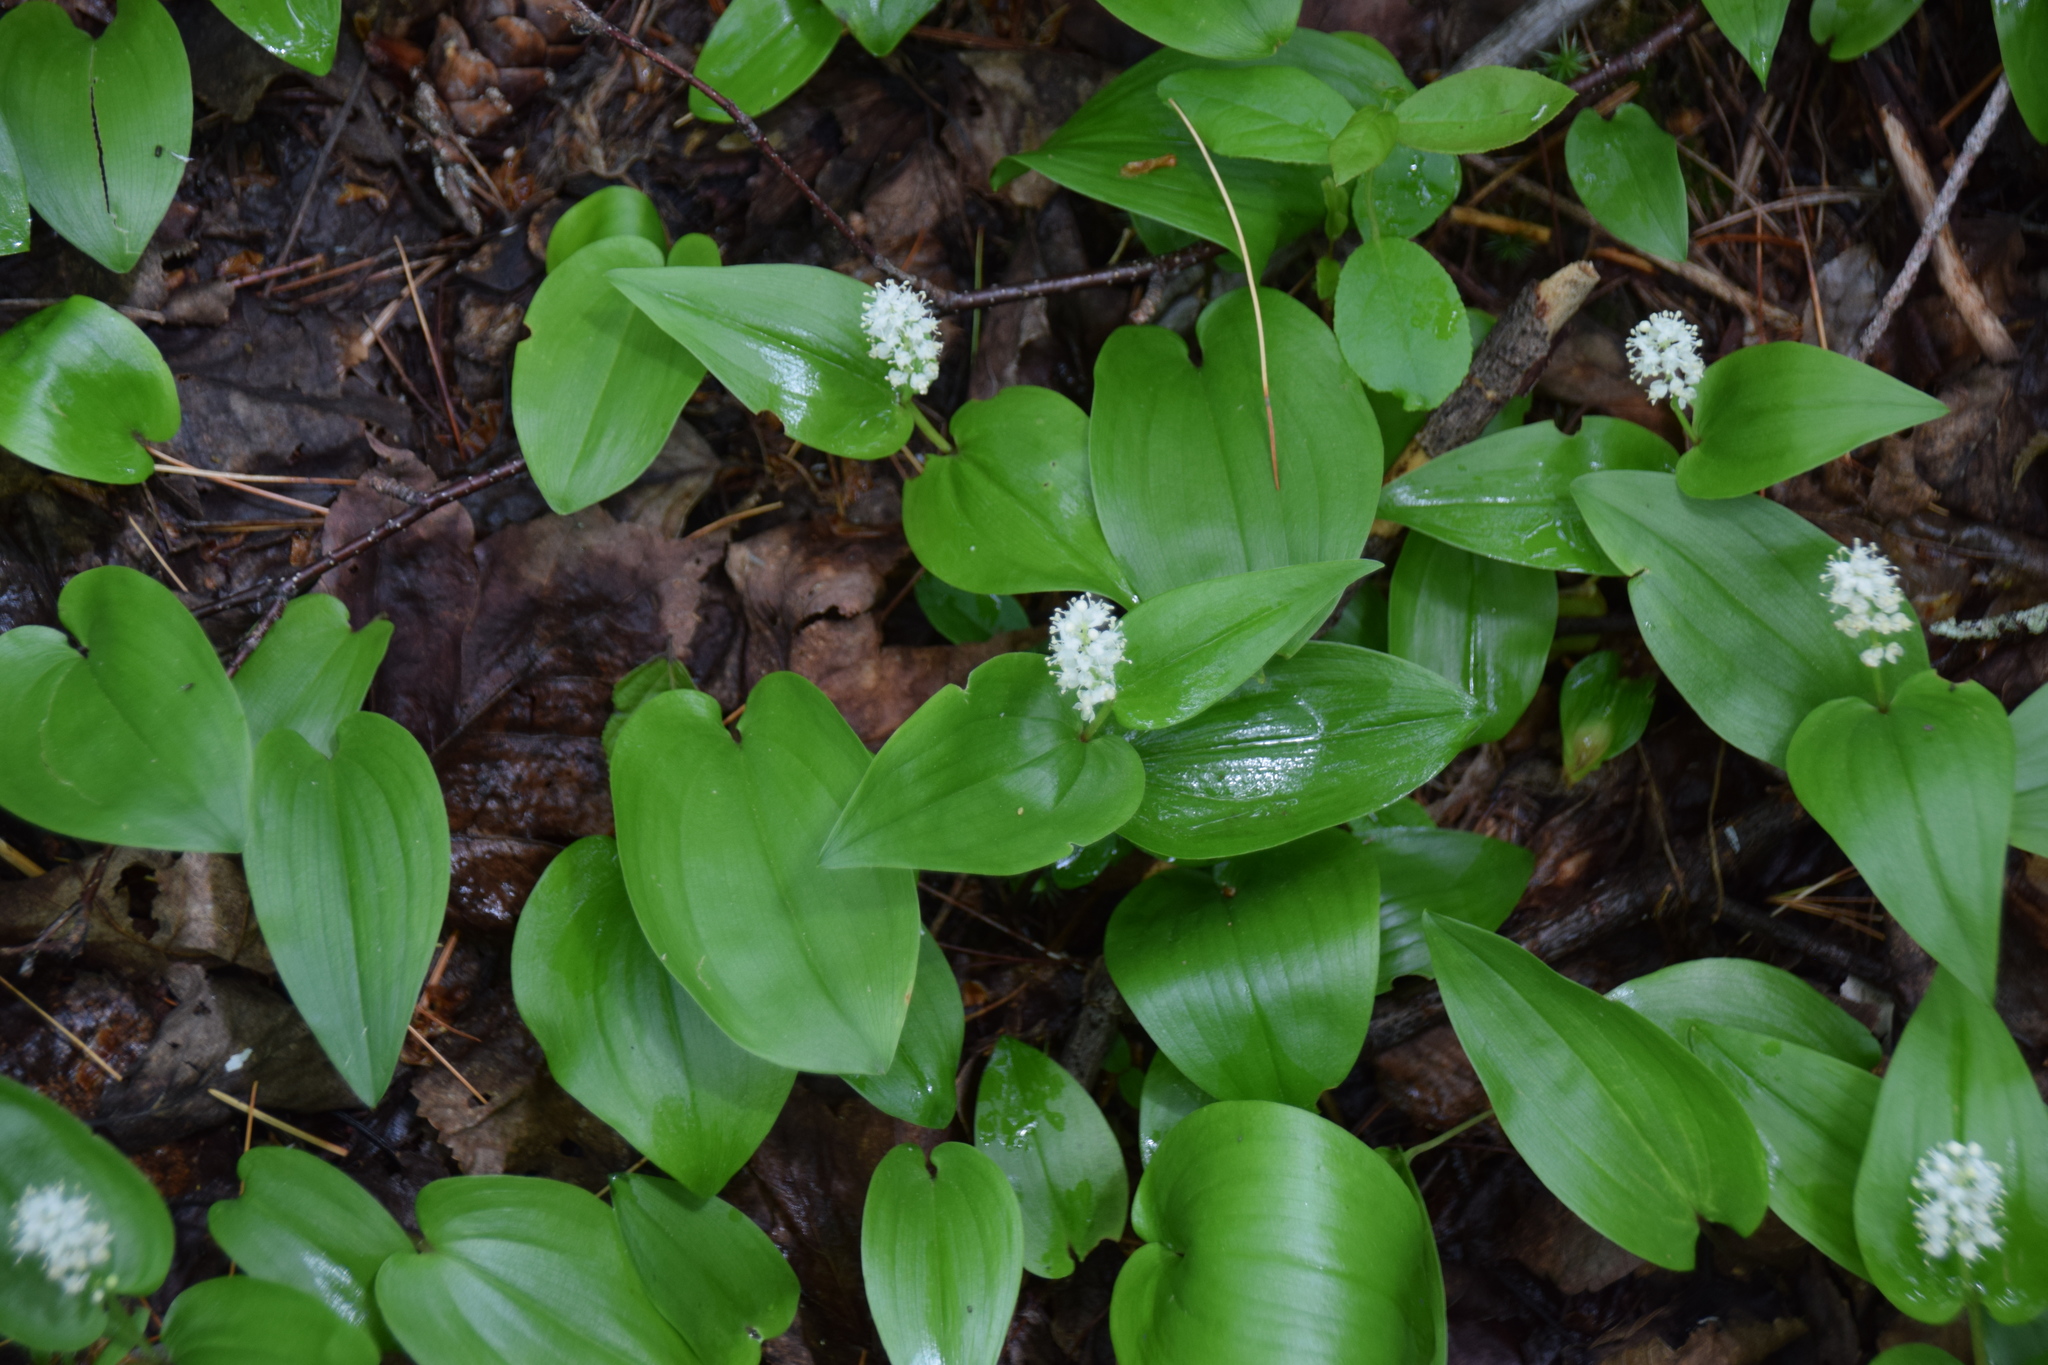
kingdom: Plantae
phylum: Tracheophyta
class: Liliopsida
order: Asparagales
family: Asparagaceae
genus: Maianthemum
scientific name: Maianthemum canadense
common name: False lily-of-the-valley
